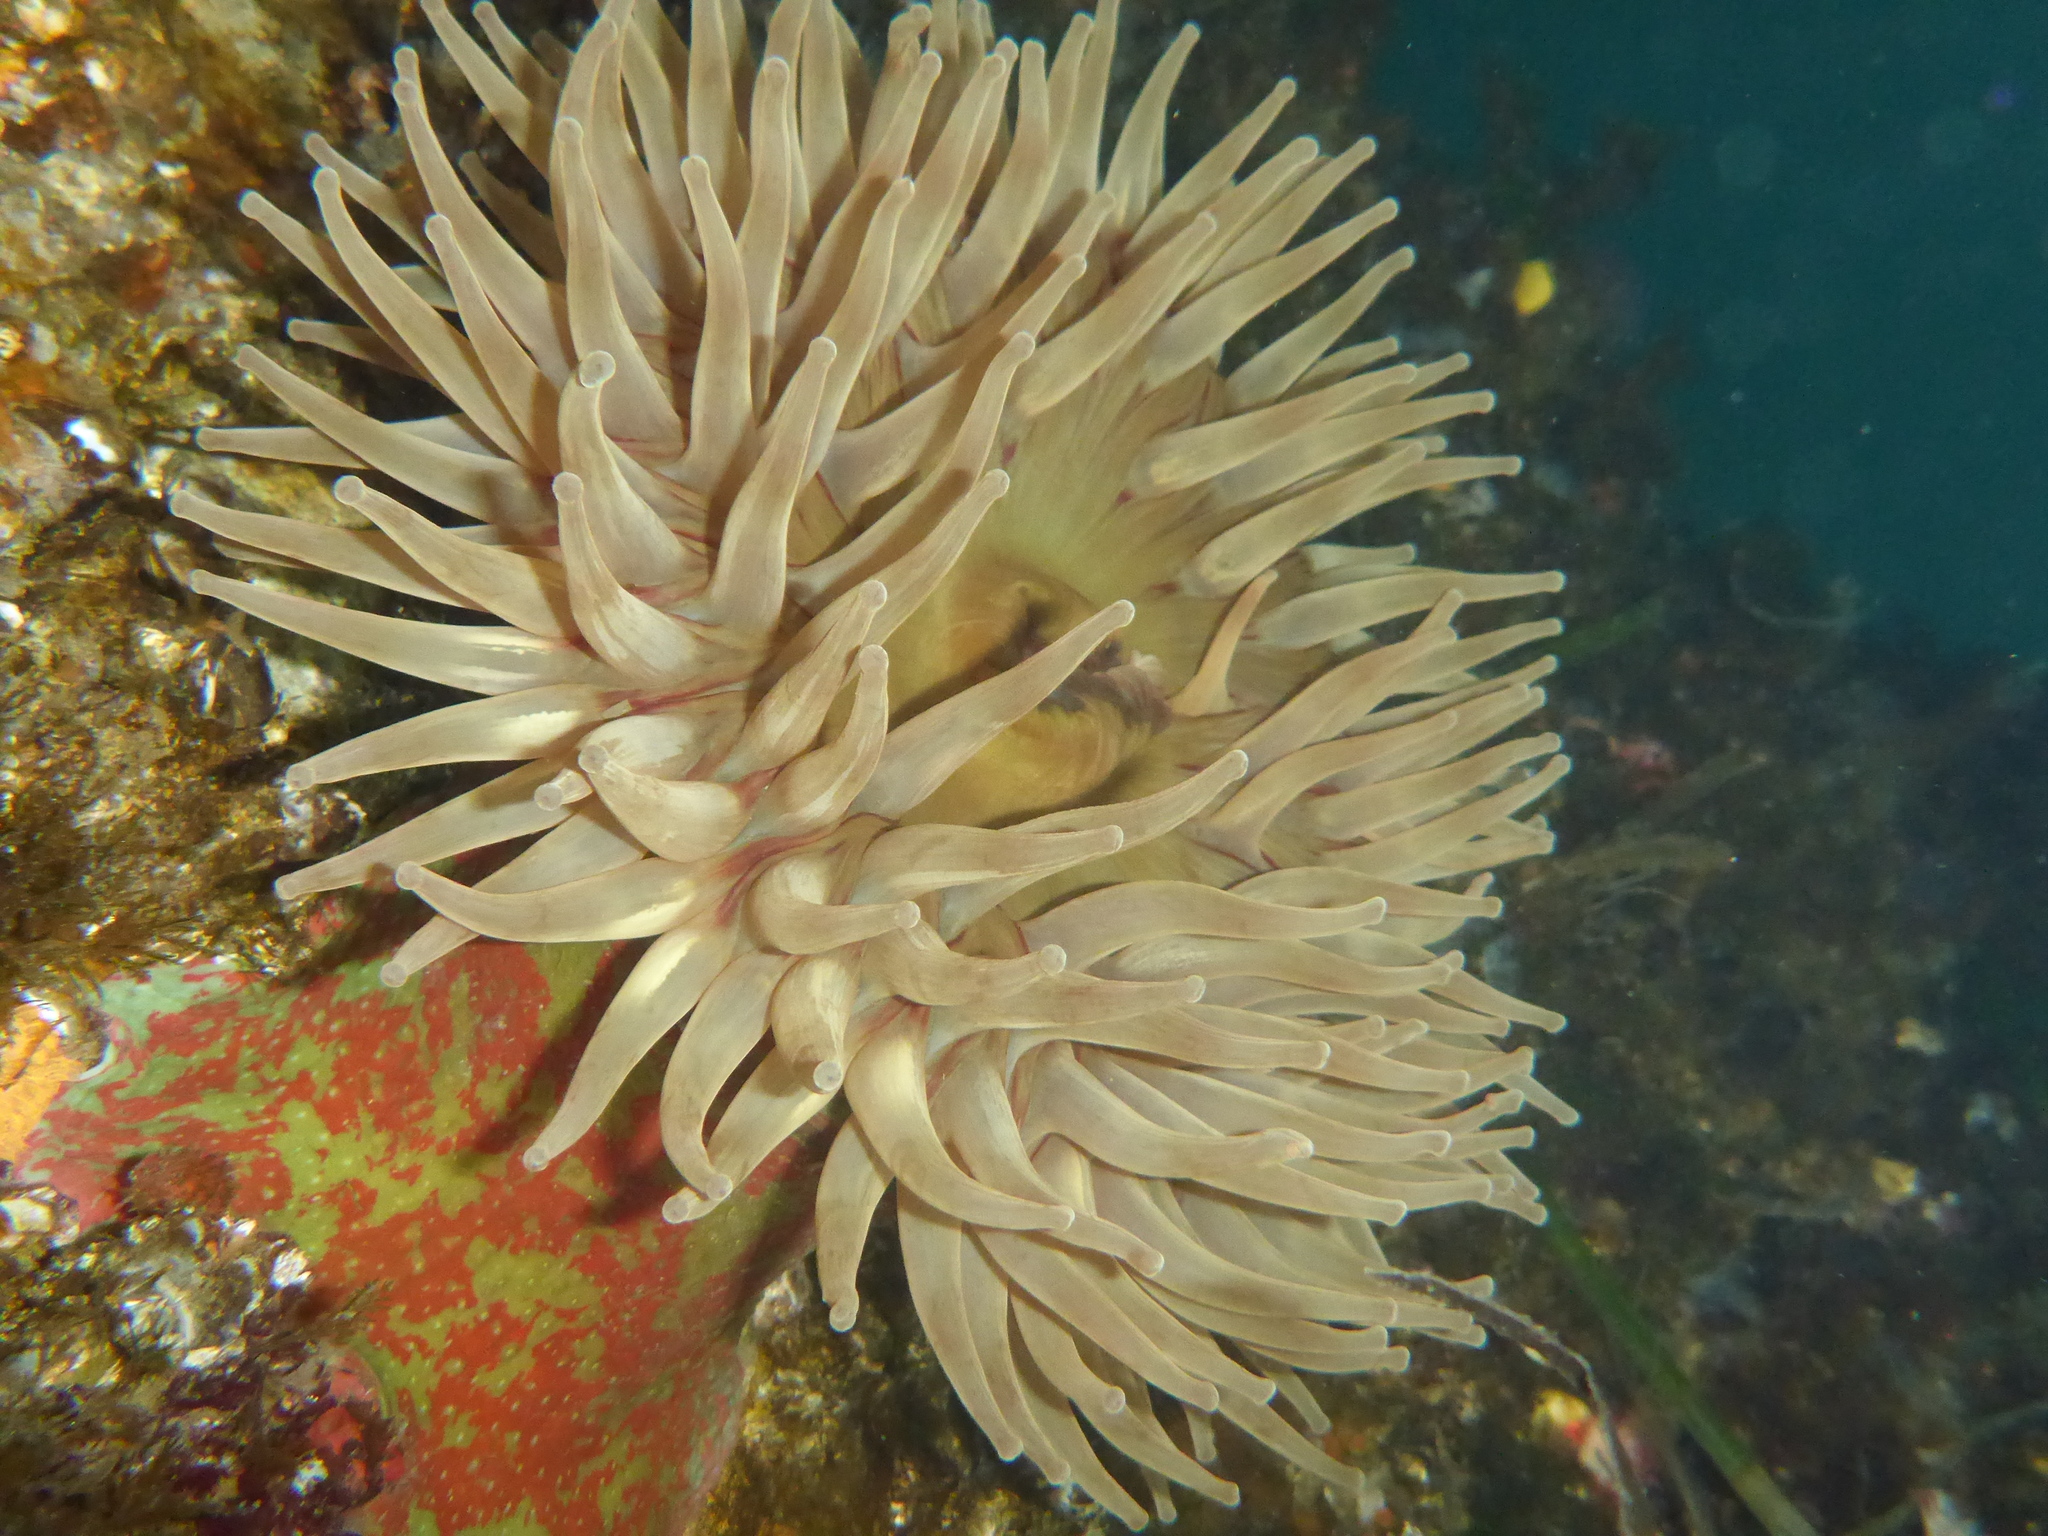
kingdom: Animalia
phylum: Cnidaria
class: Anthozoa
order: Actiniaria
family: Actiniidae
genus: Urticina
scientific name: Urticina grebelnyi
